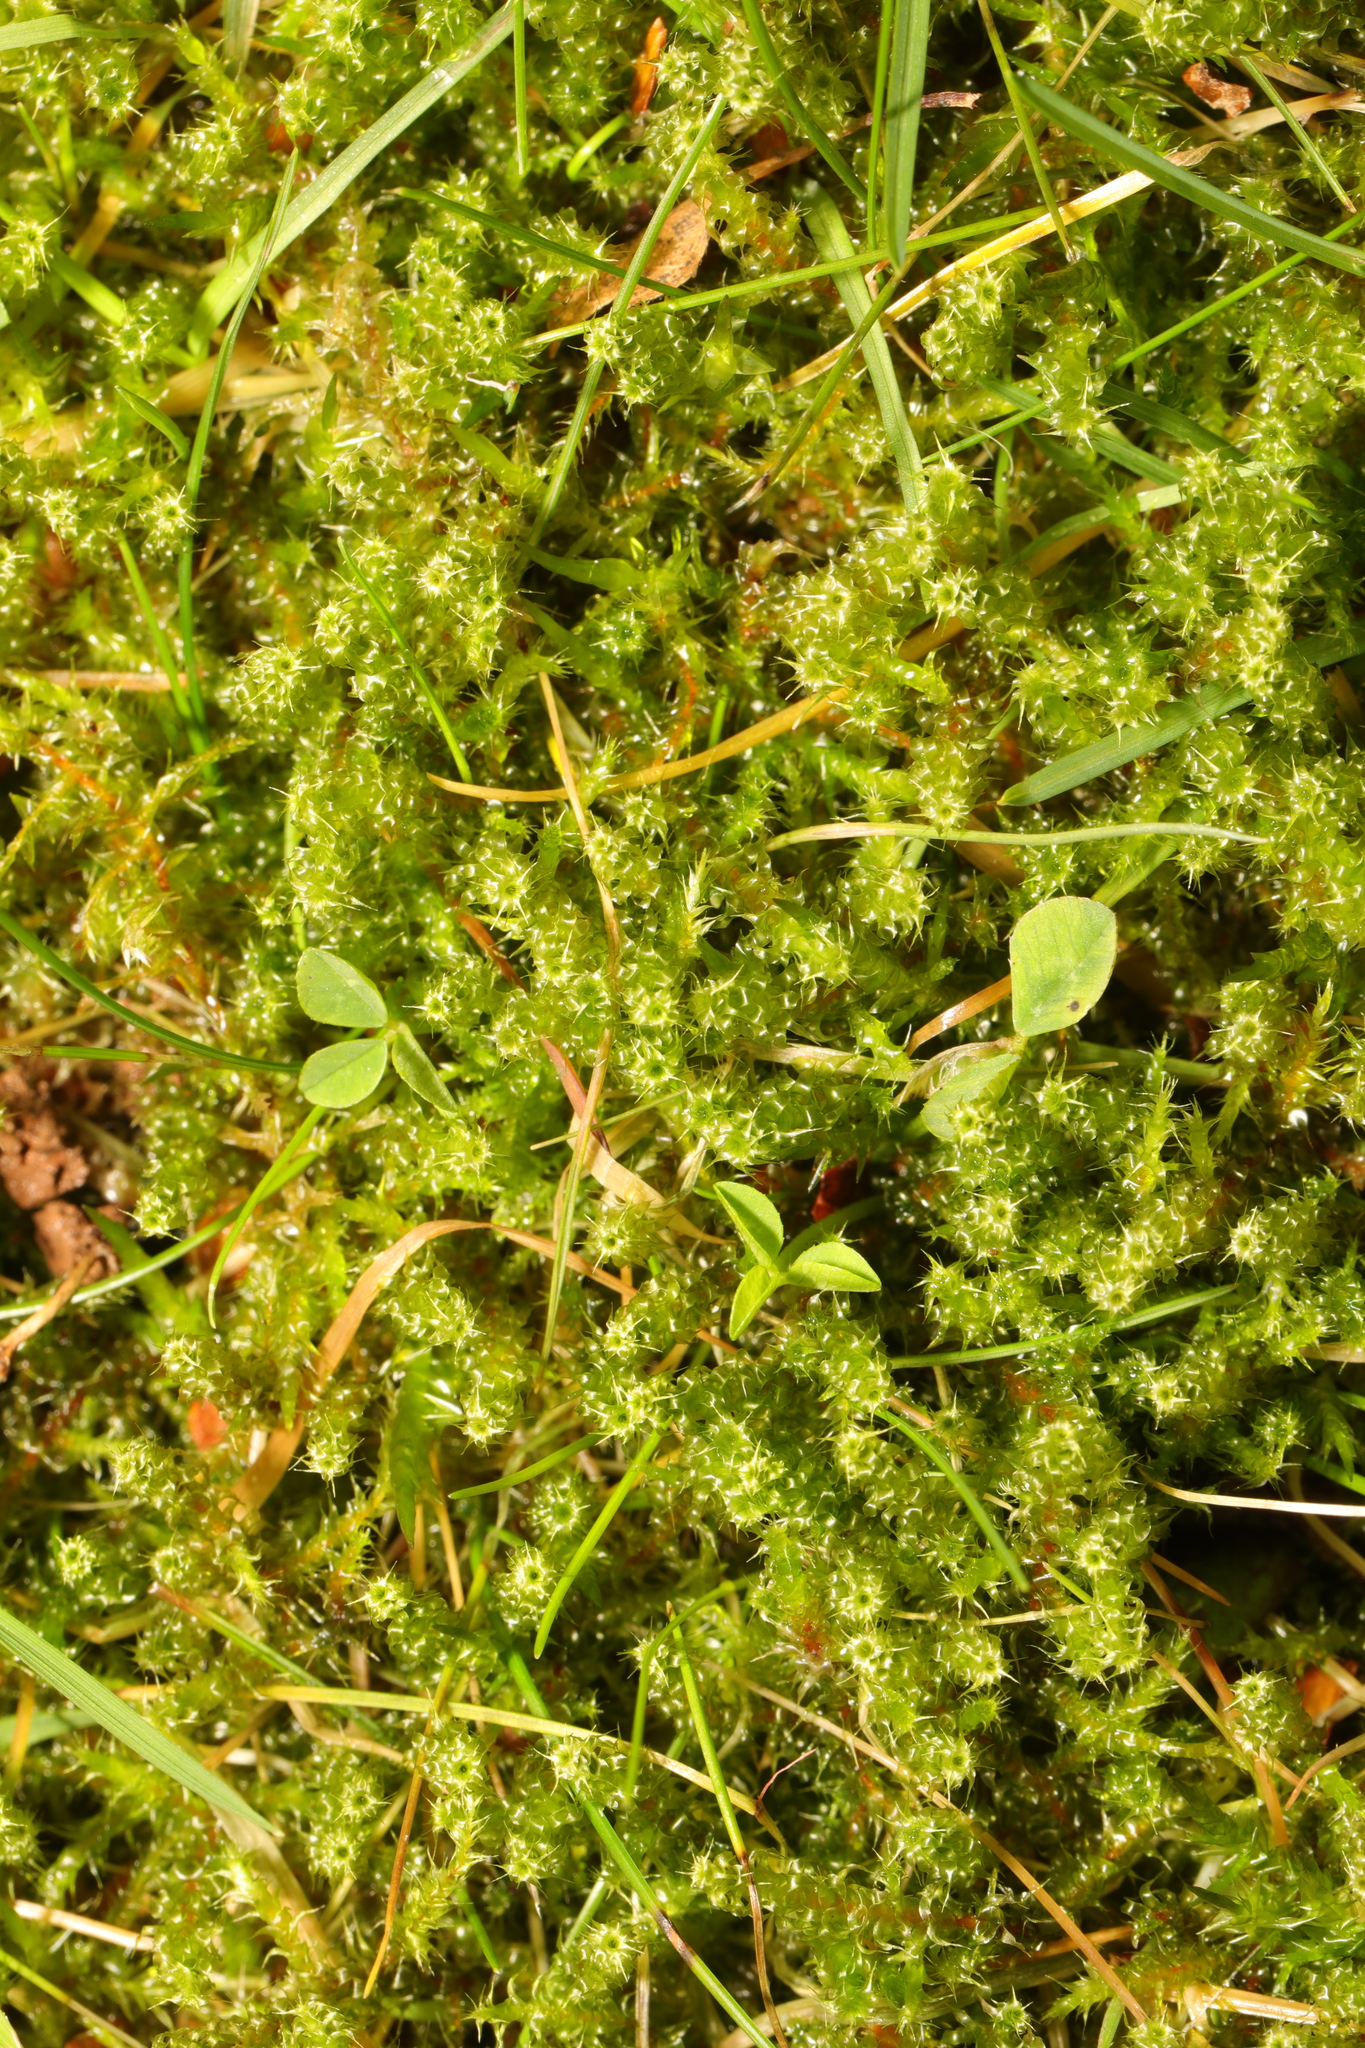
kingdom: Plantae
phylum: Bryophyta
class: Bryopsida
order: Hypnales
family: Hylocomiaceae
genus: Rhytidiadelphus
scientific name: Rhytidiadelphus squarrosus
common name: Springy turf-moss
